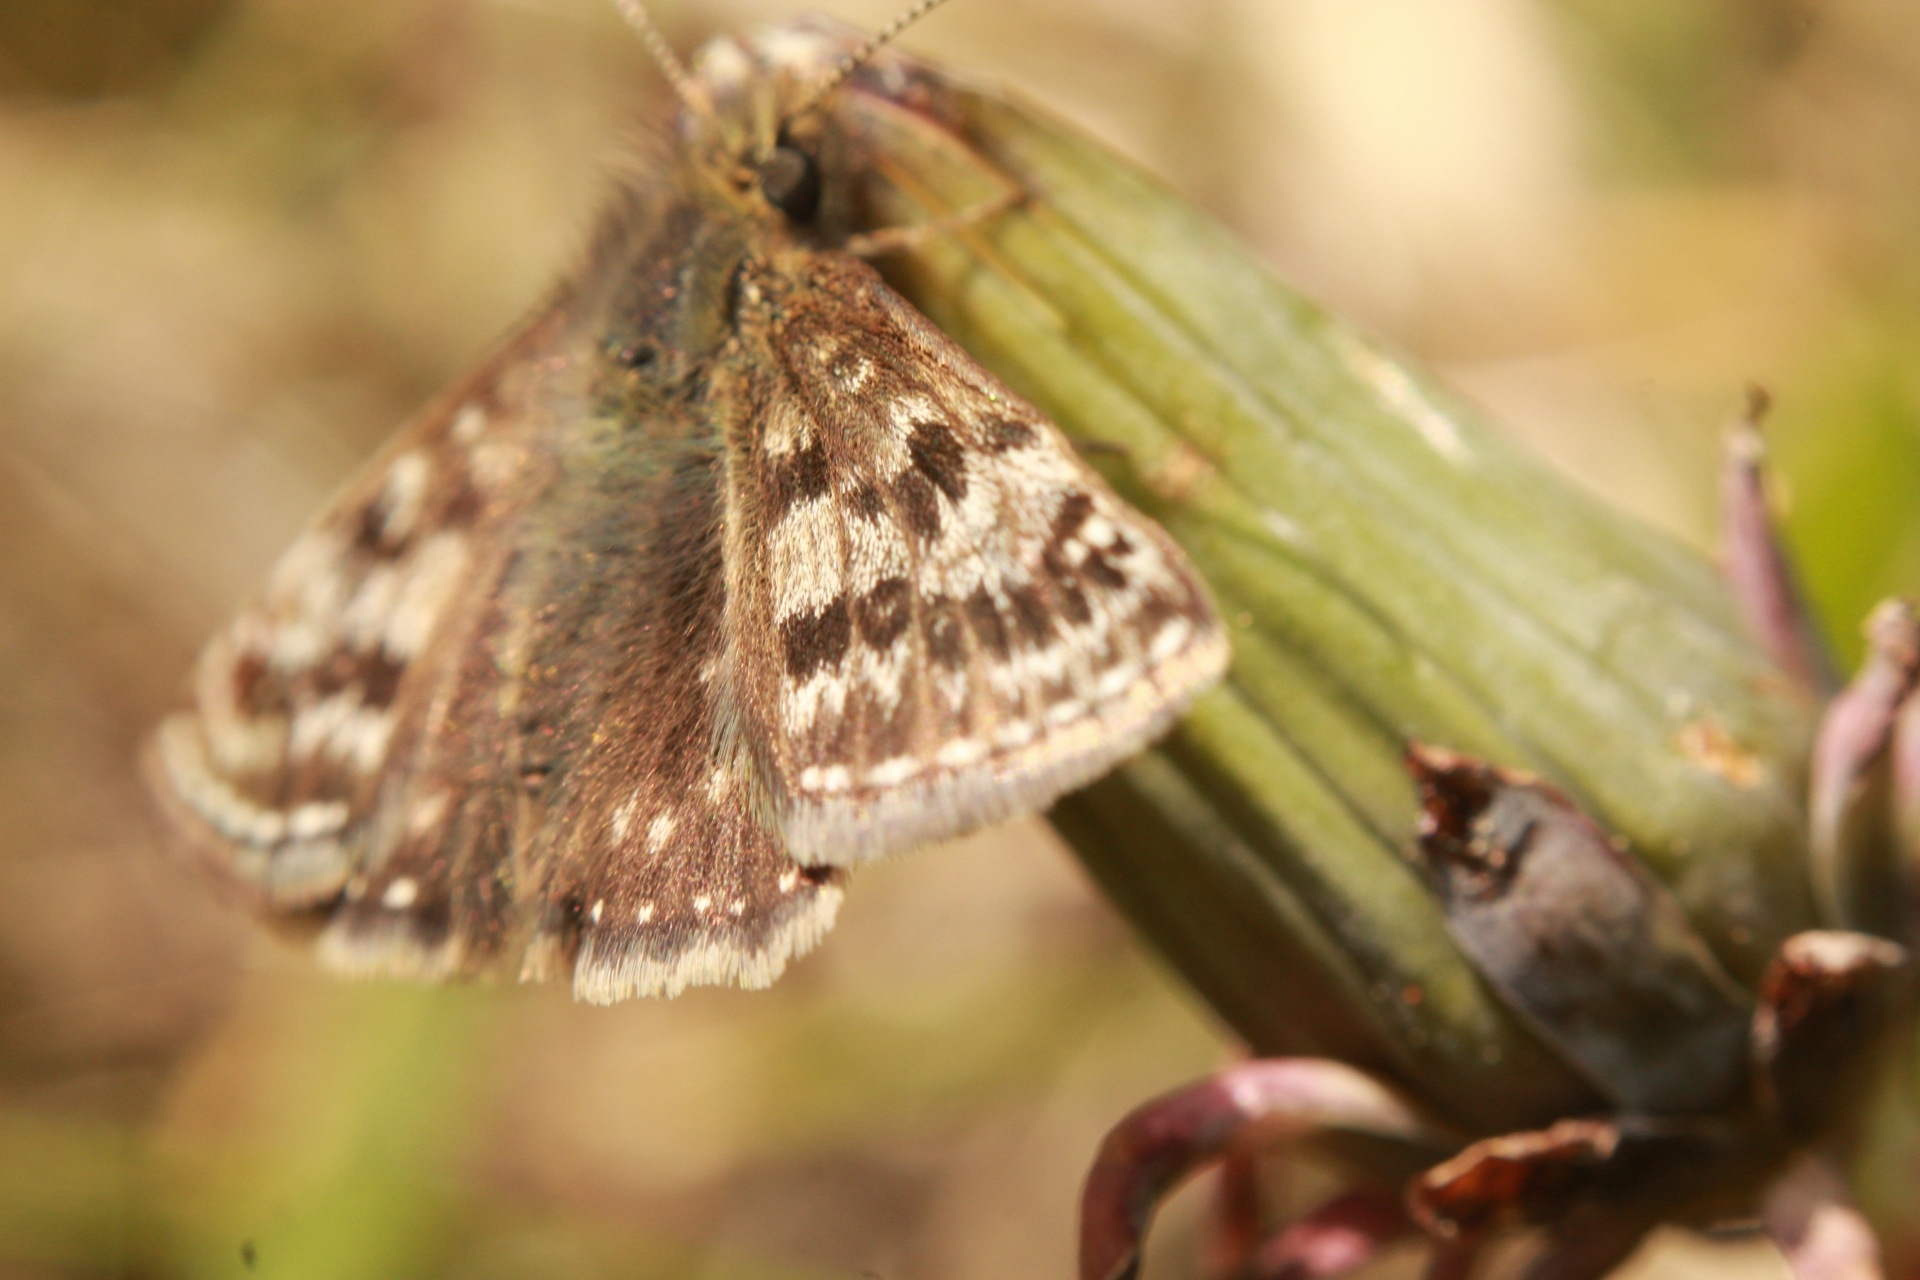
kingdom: Animalia
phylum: Arthropoda
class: Insecta
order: Lepidoptera
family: Hesperiidae
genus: Erynnis
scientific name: Erynnis tages
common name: Dingy skipper
